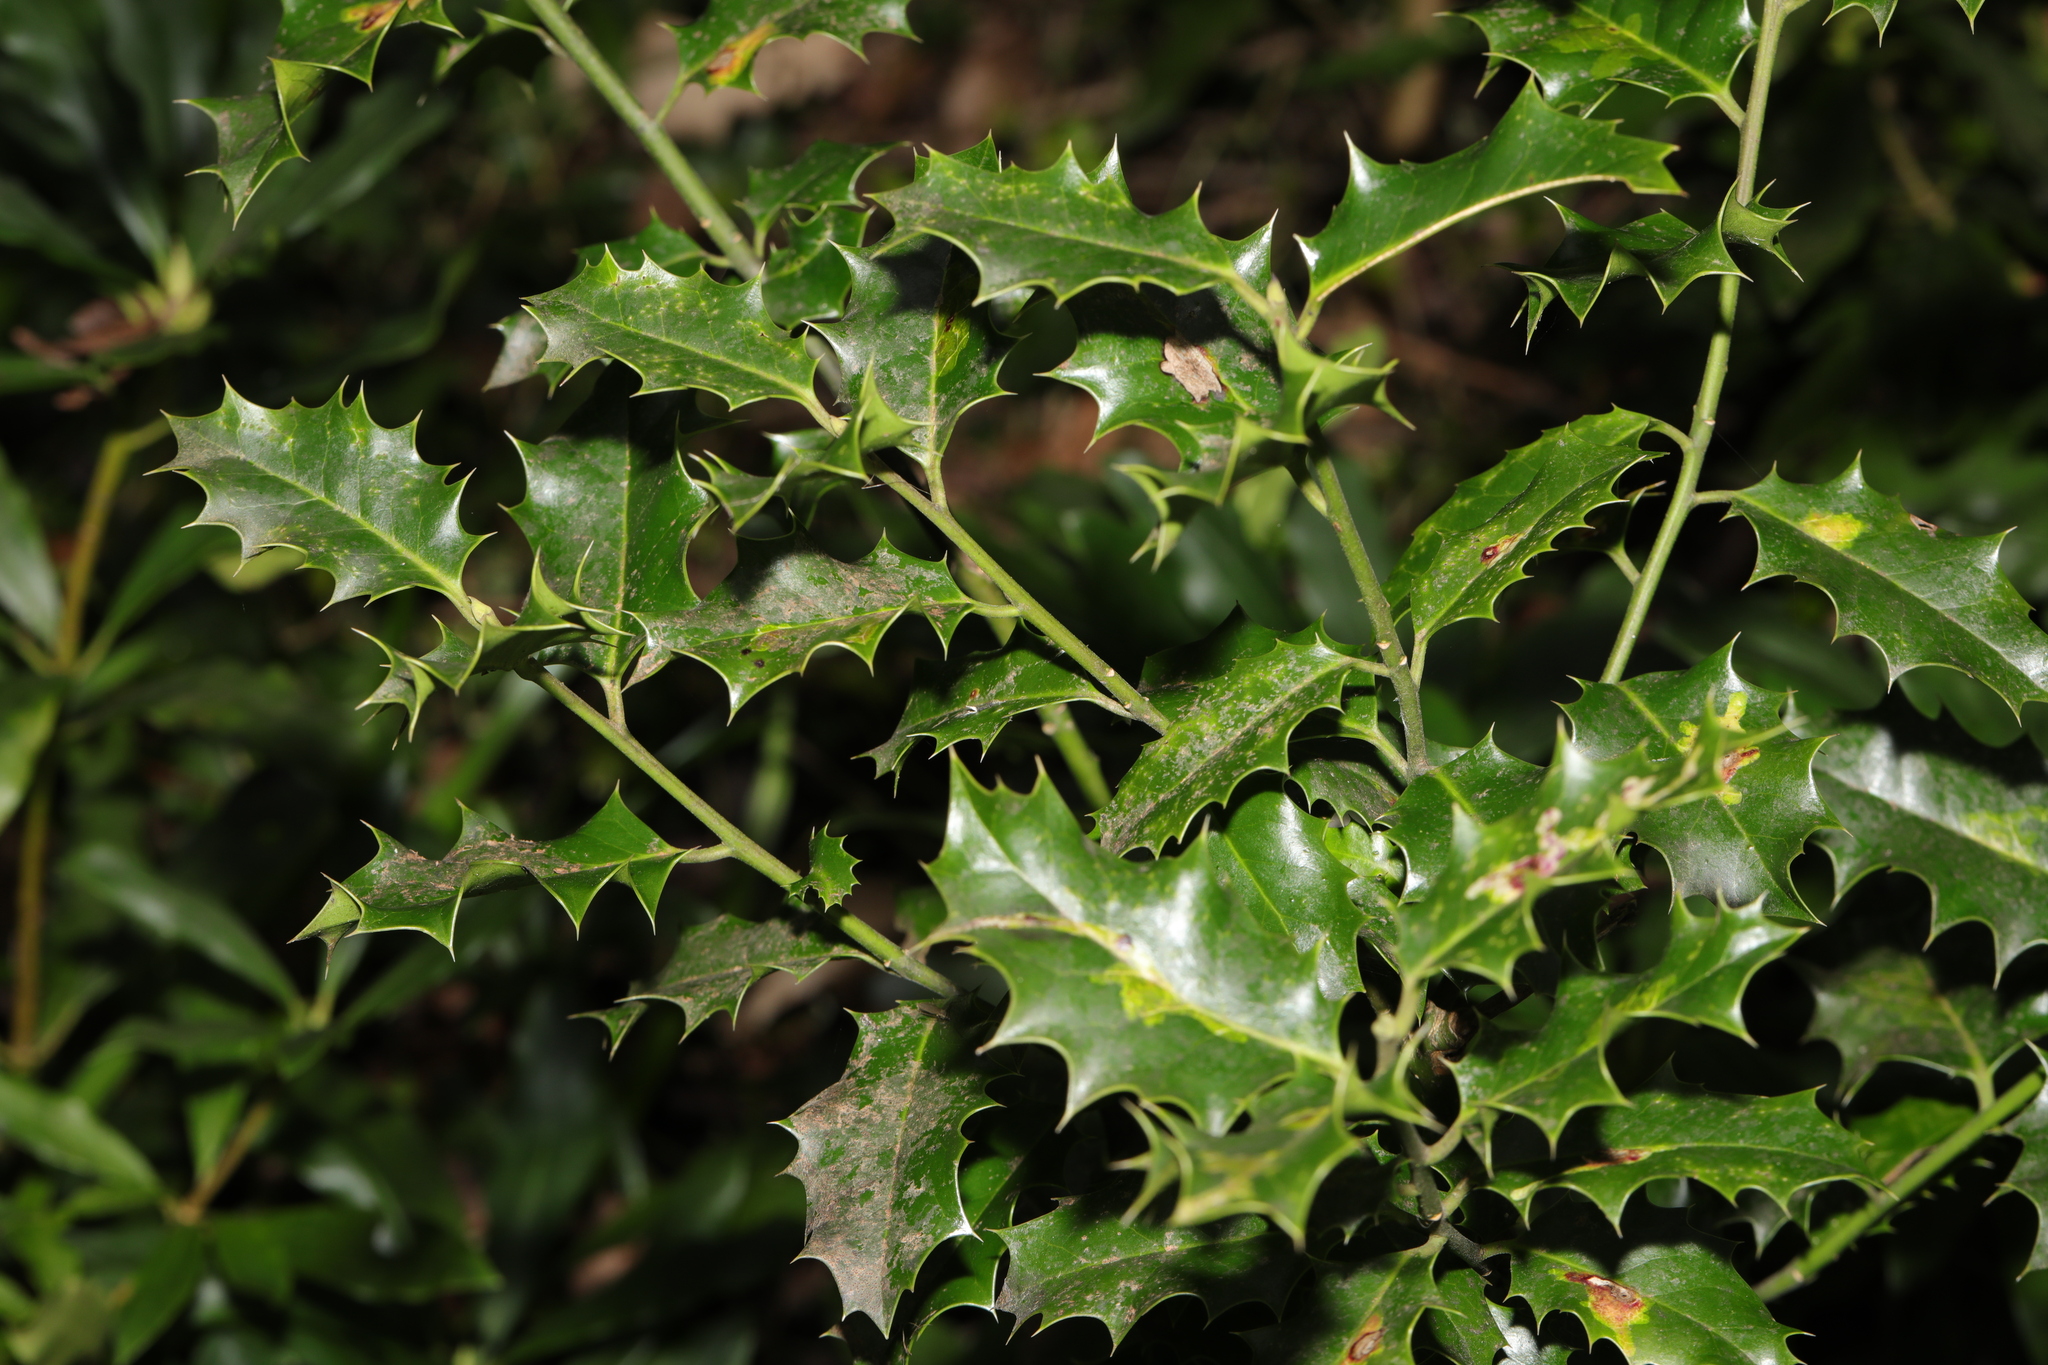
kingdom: Plantae
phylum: Tracheophyta
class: Magnoliopsida
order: Aquifoliales
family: Aquifoliaceae
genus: Ilex
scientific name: Ilex aquifolium
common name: English holly
